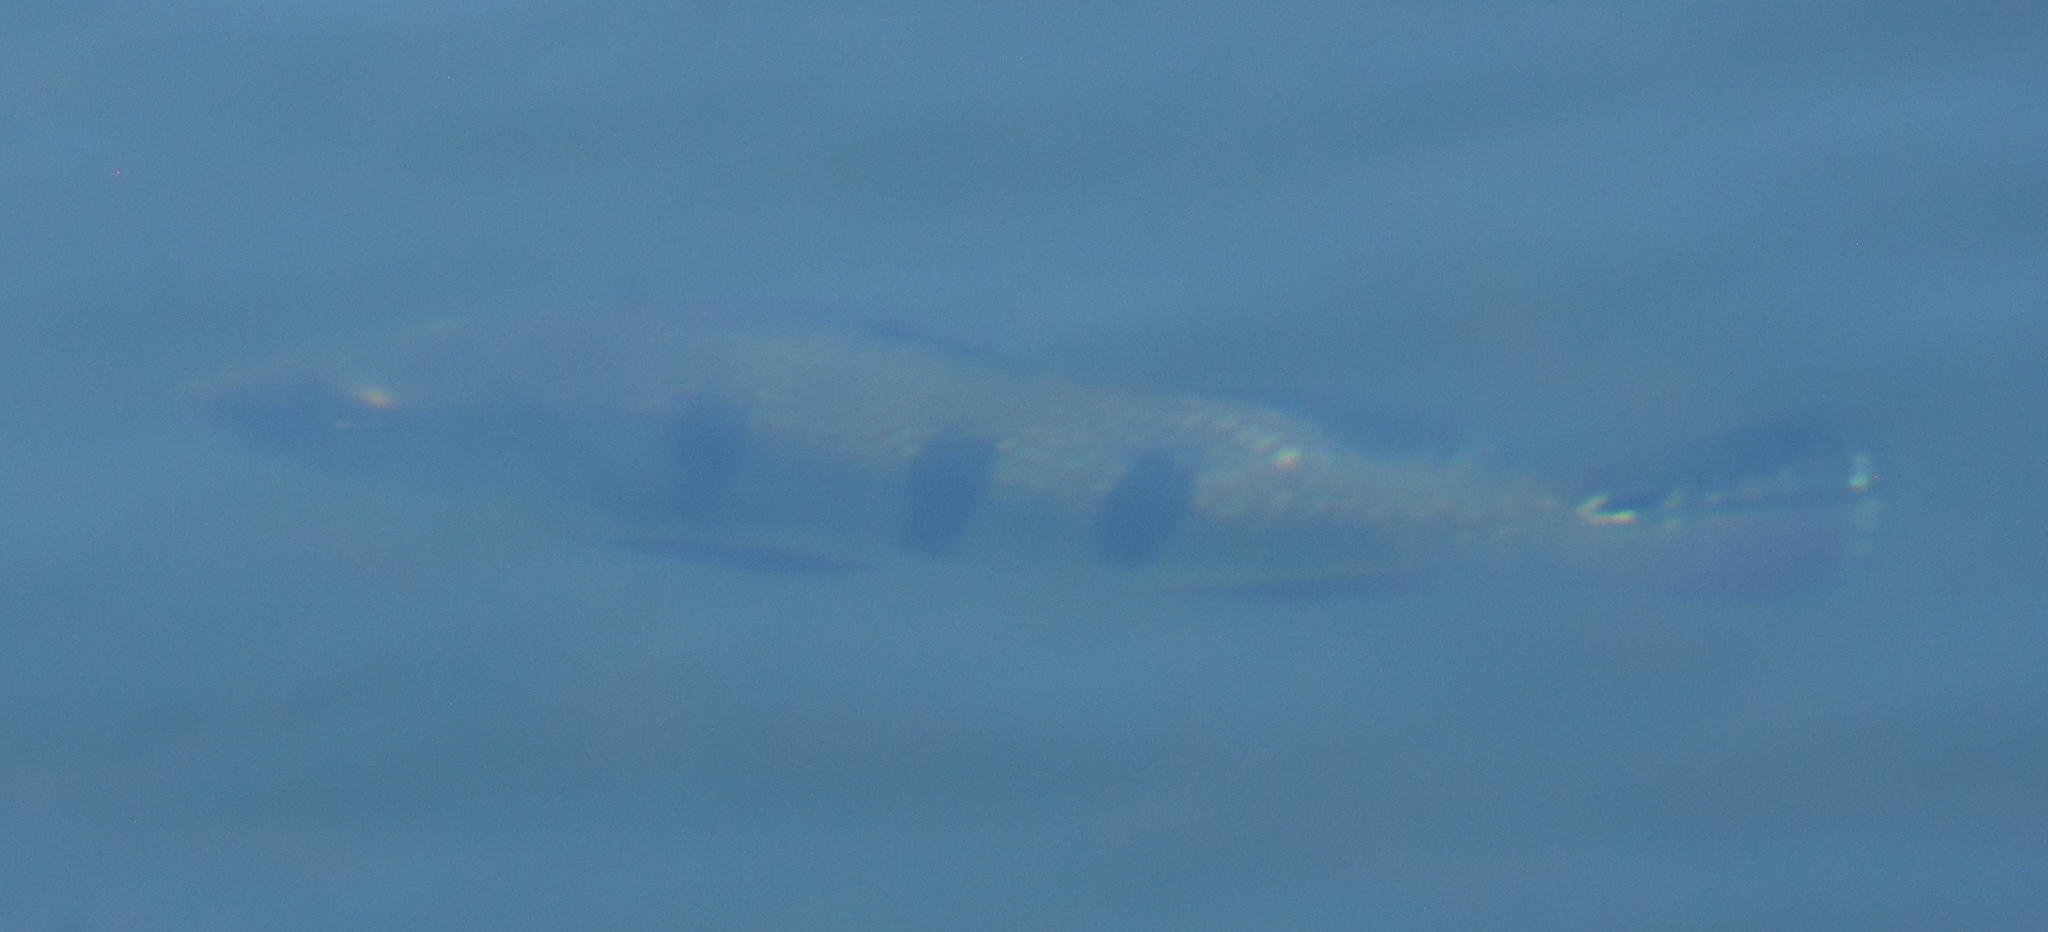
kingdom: Animalia
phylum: Chordata
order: Perciformes
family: Cichlidae
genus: Cichla
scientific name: Cichla ocellaris
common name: Peacock cichlid
